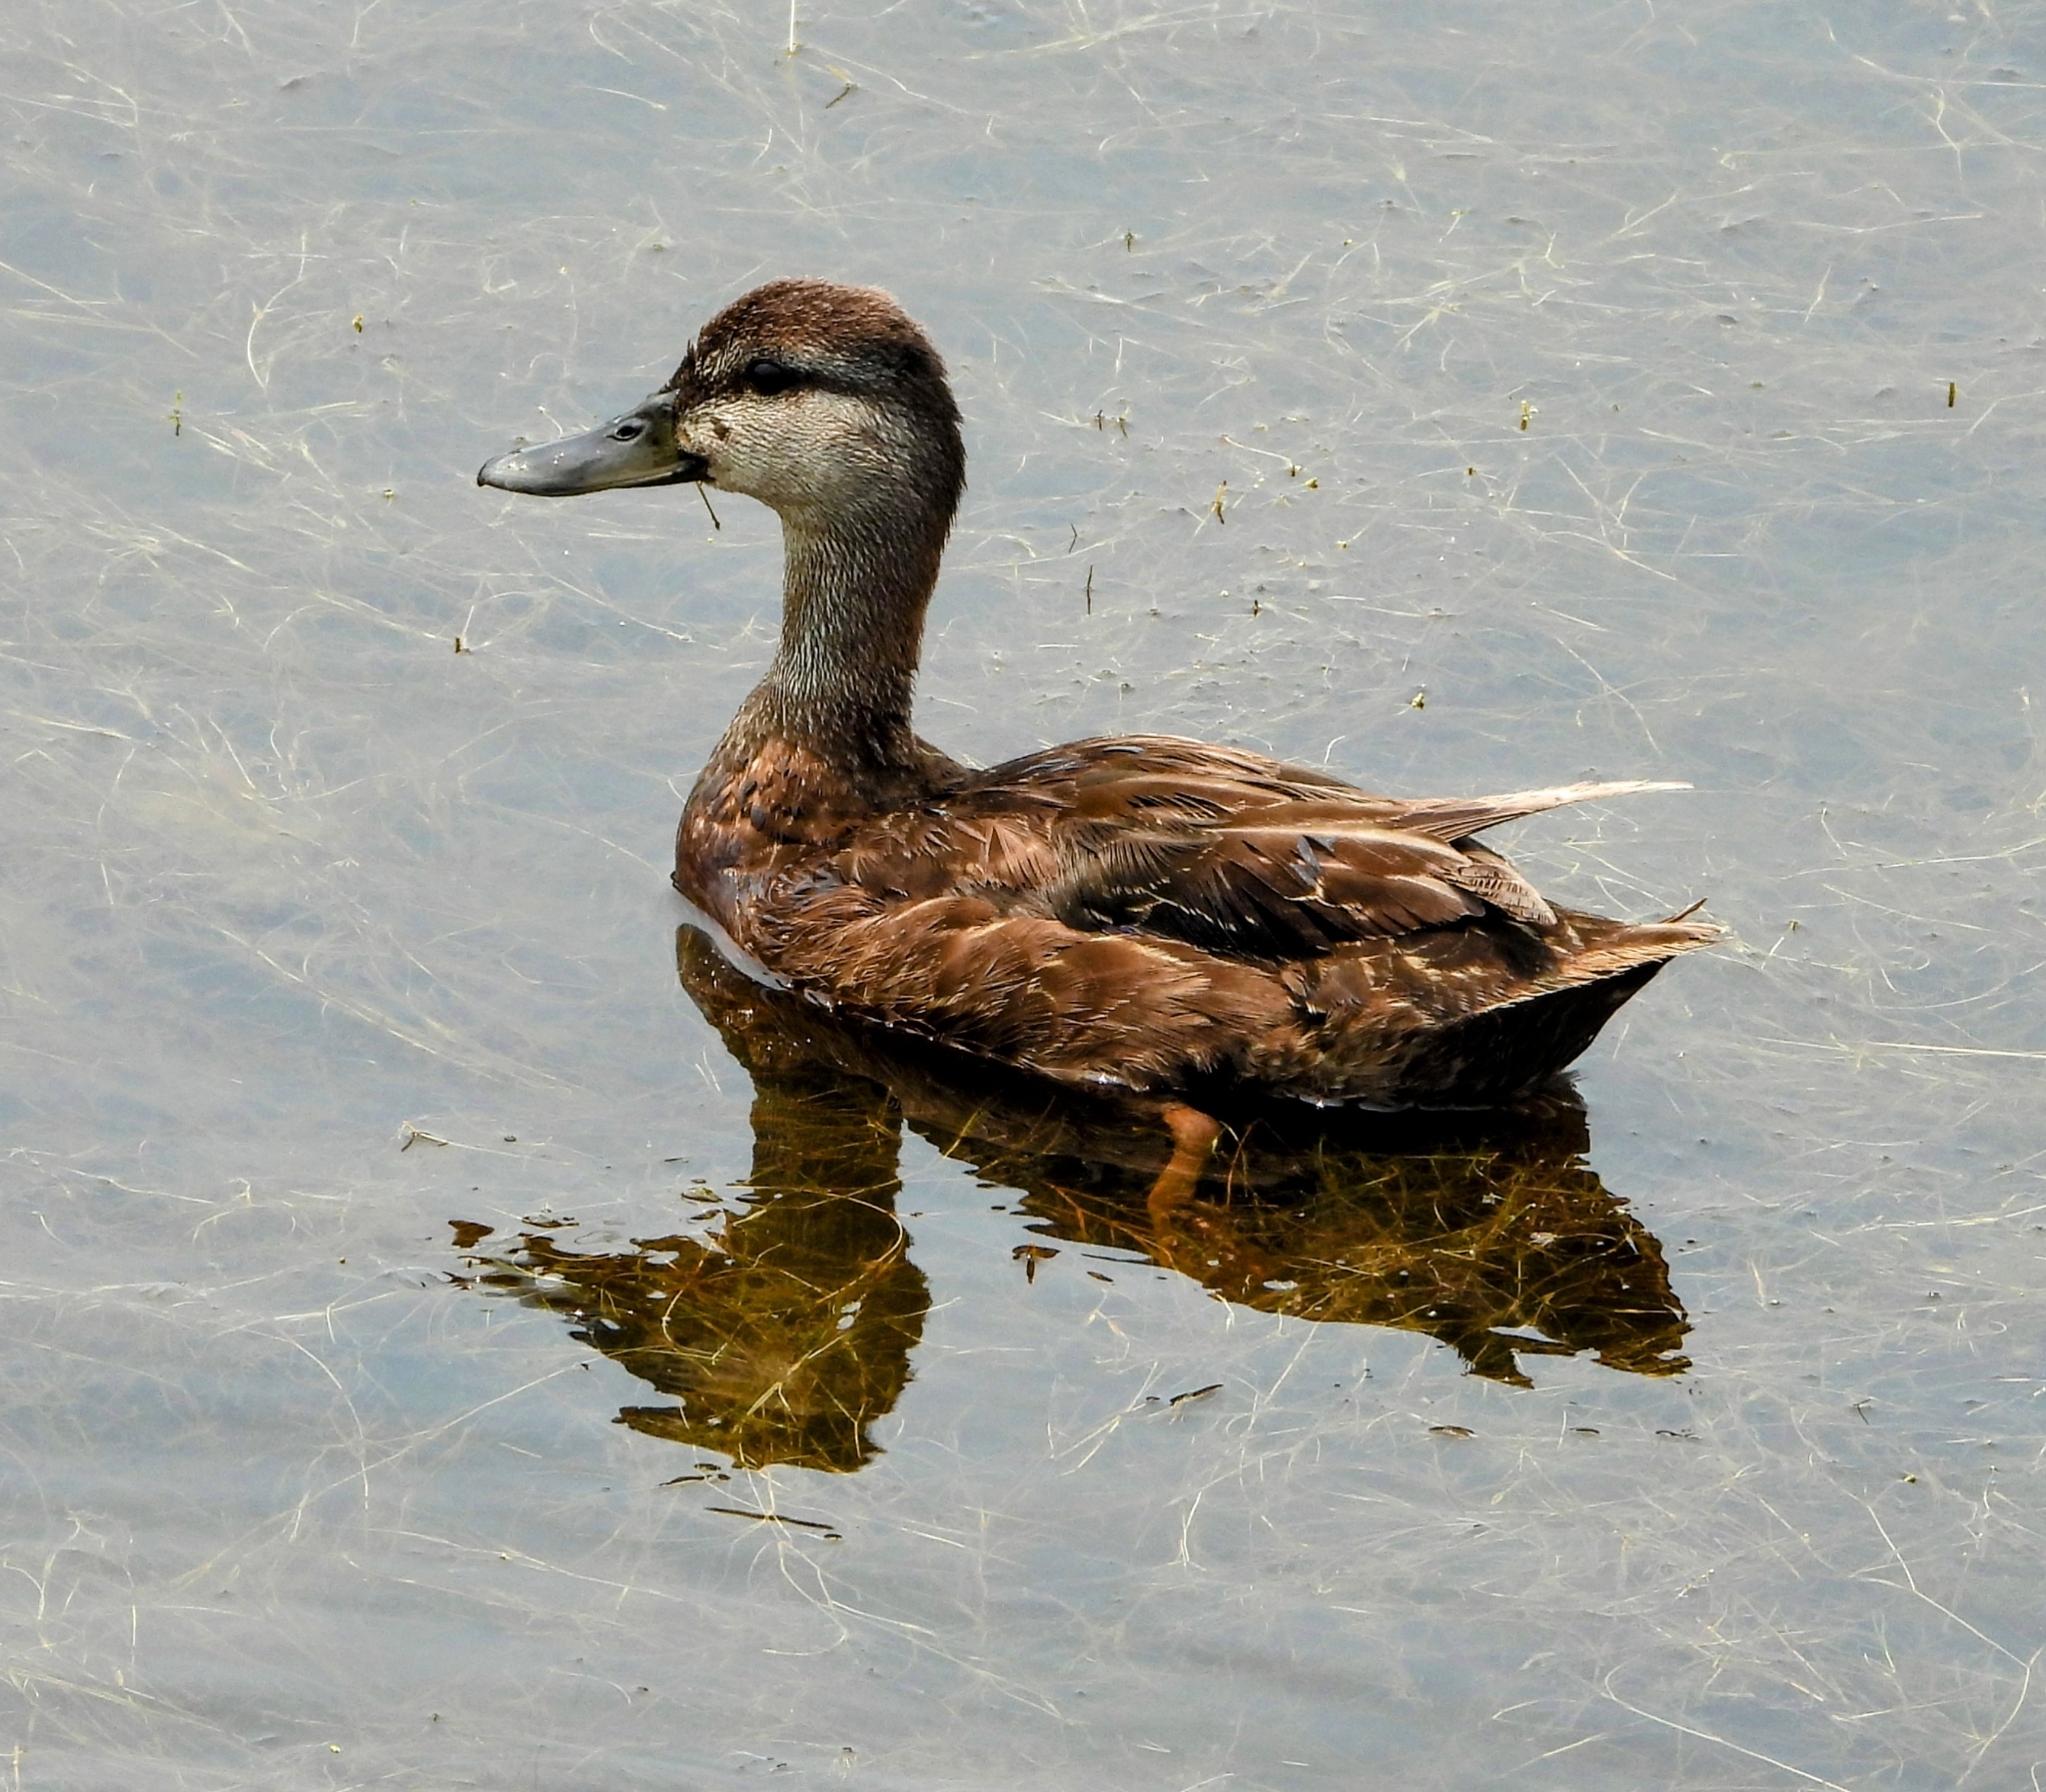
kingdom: Animalia
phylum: Chordata
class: Aves
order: Anseriformes
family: Anatidae
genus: Anas
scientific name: Anas rubripes
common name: American black duck
